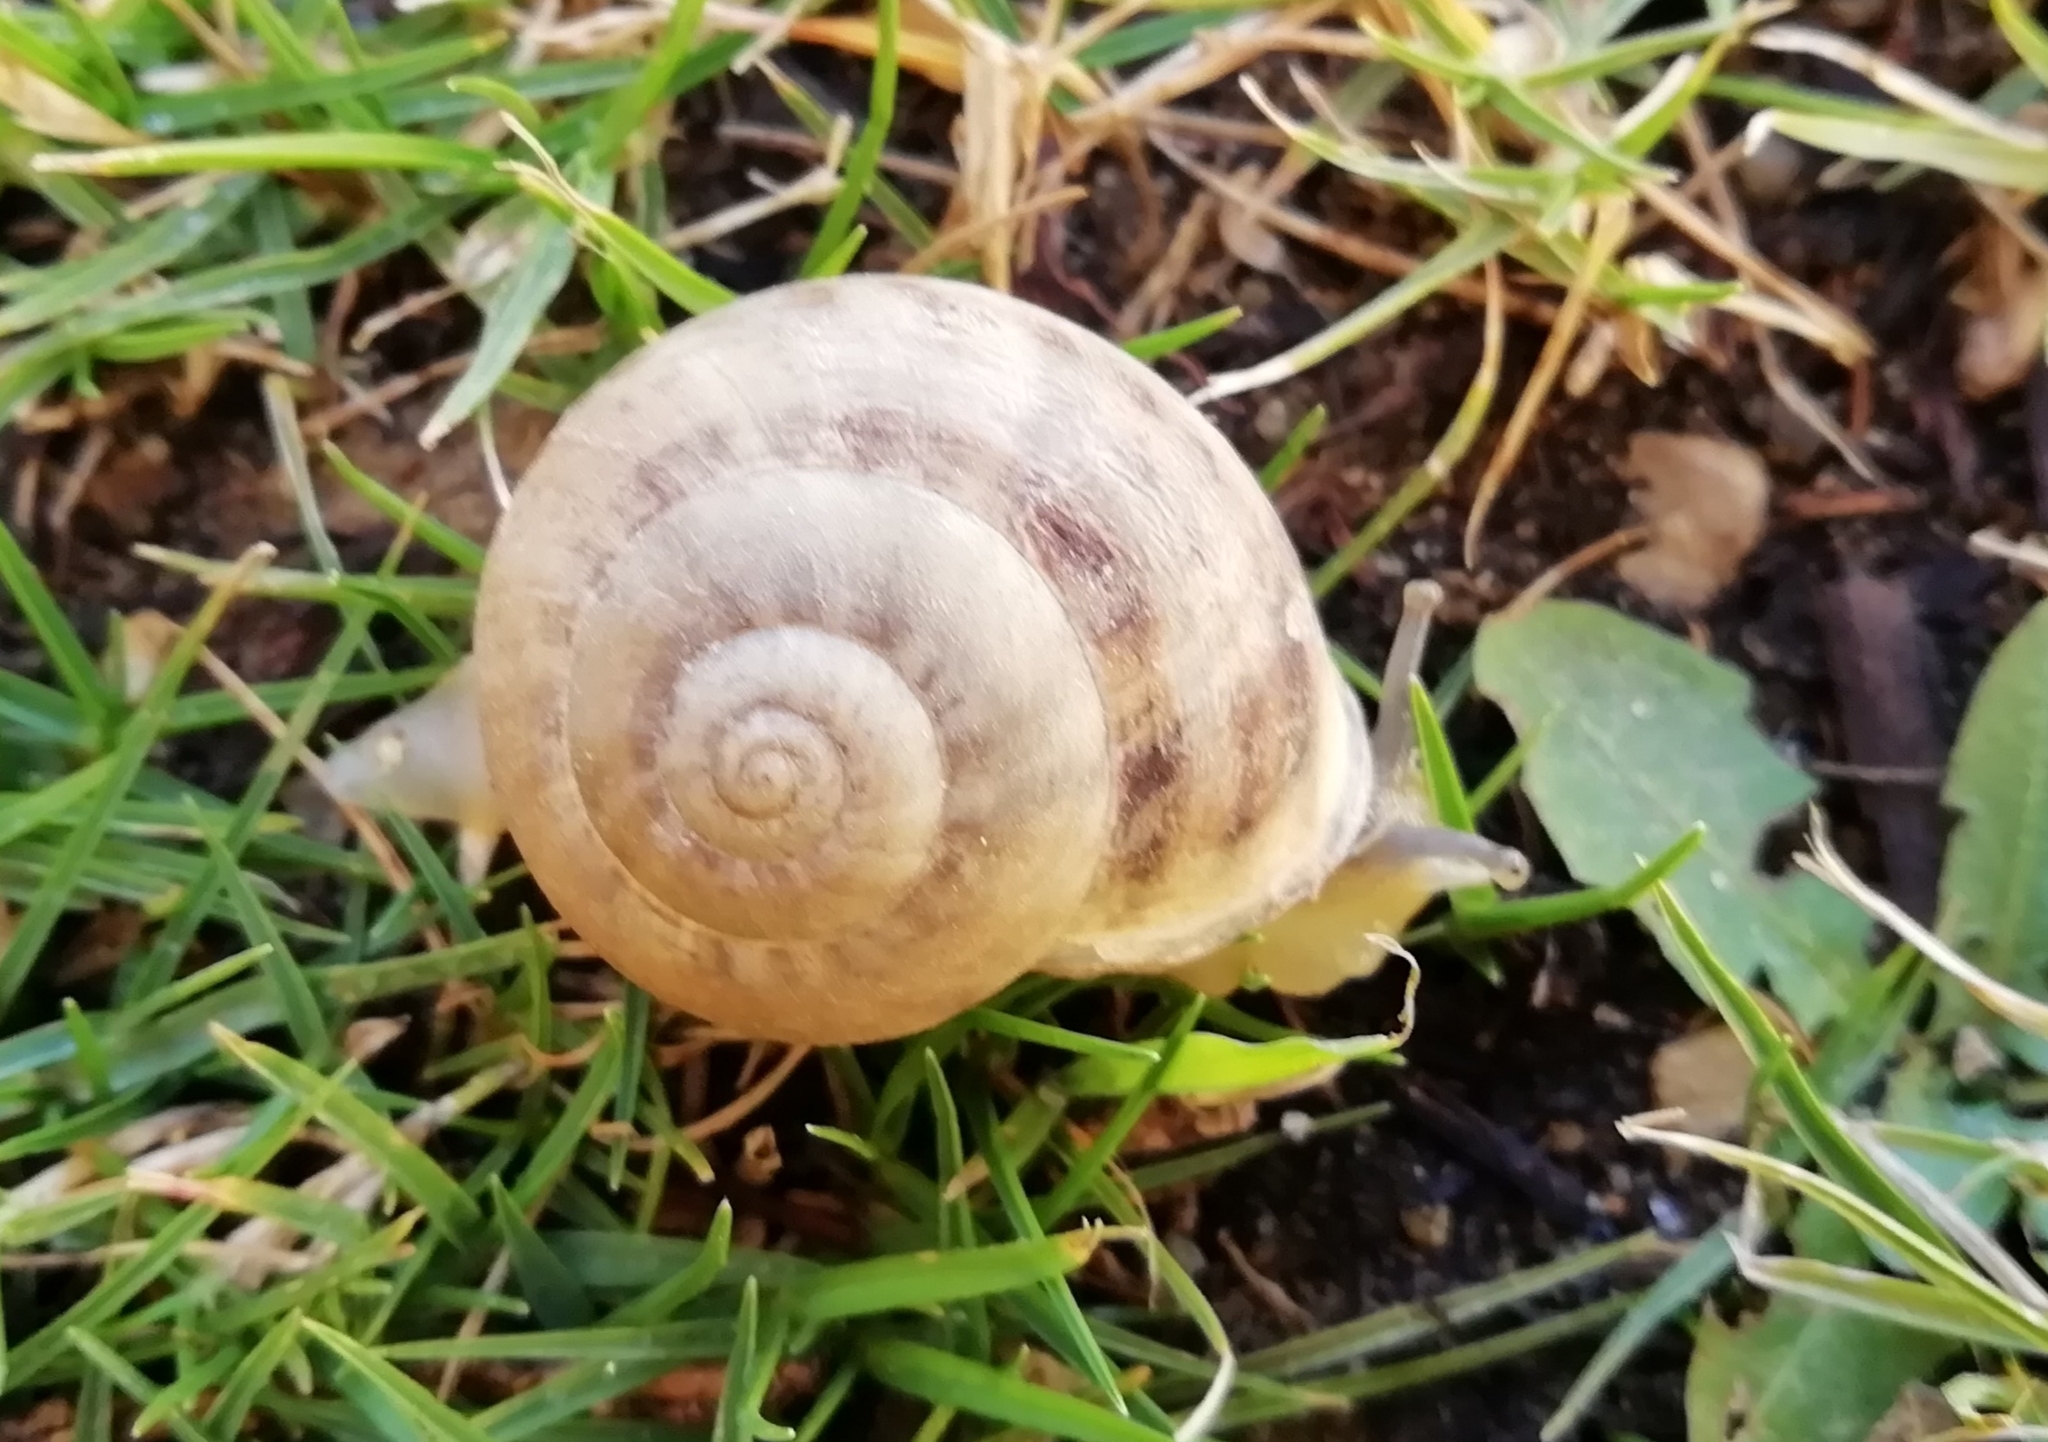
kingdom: Animalia
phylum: Mollusca
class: Gastropoda
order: Stylommatophora
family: Helicidae
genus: Eobania
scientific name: Eobania vermiculata
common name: Chocolateband snail
